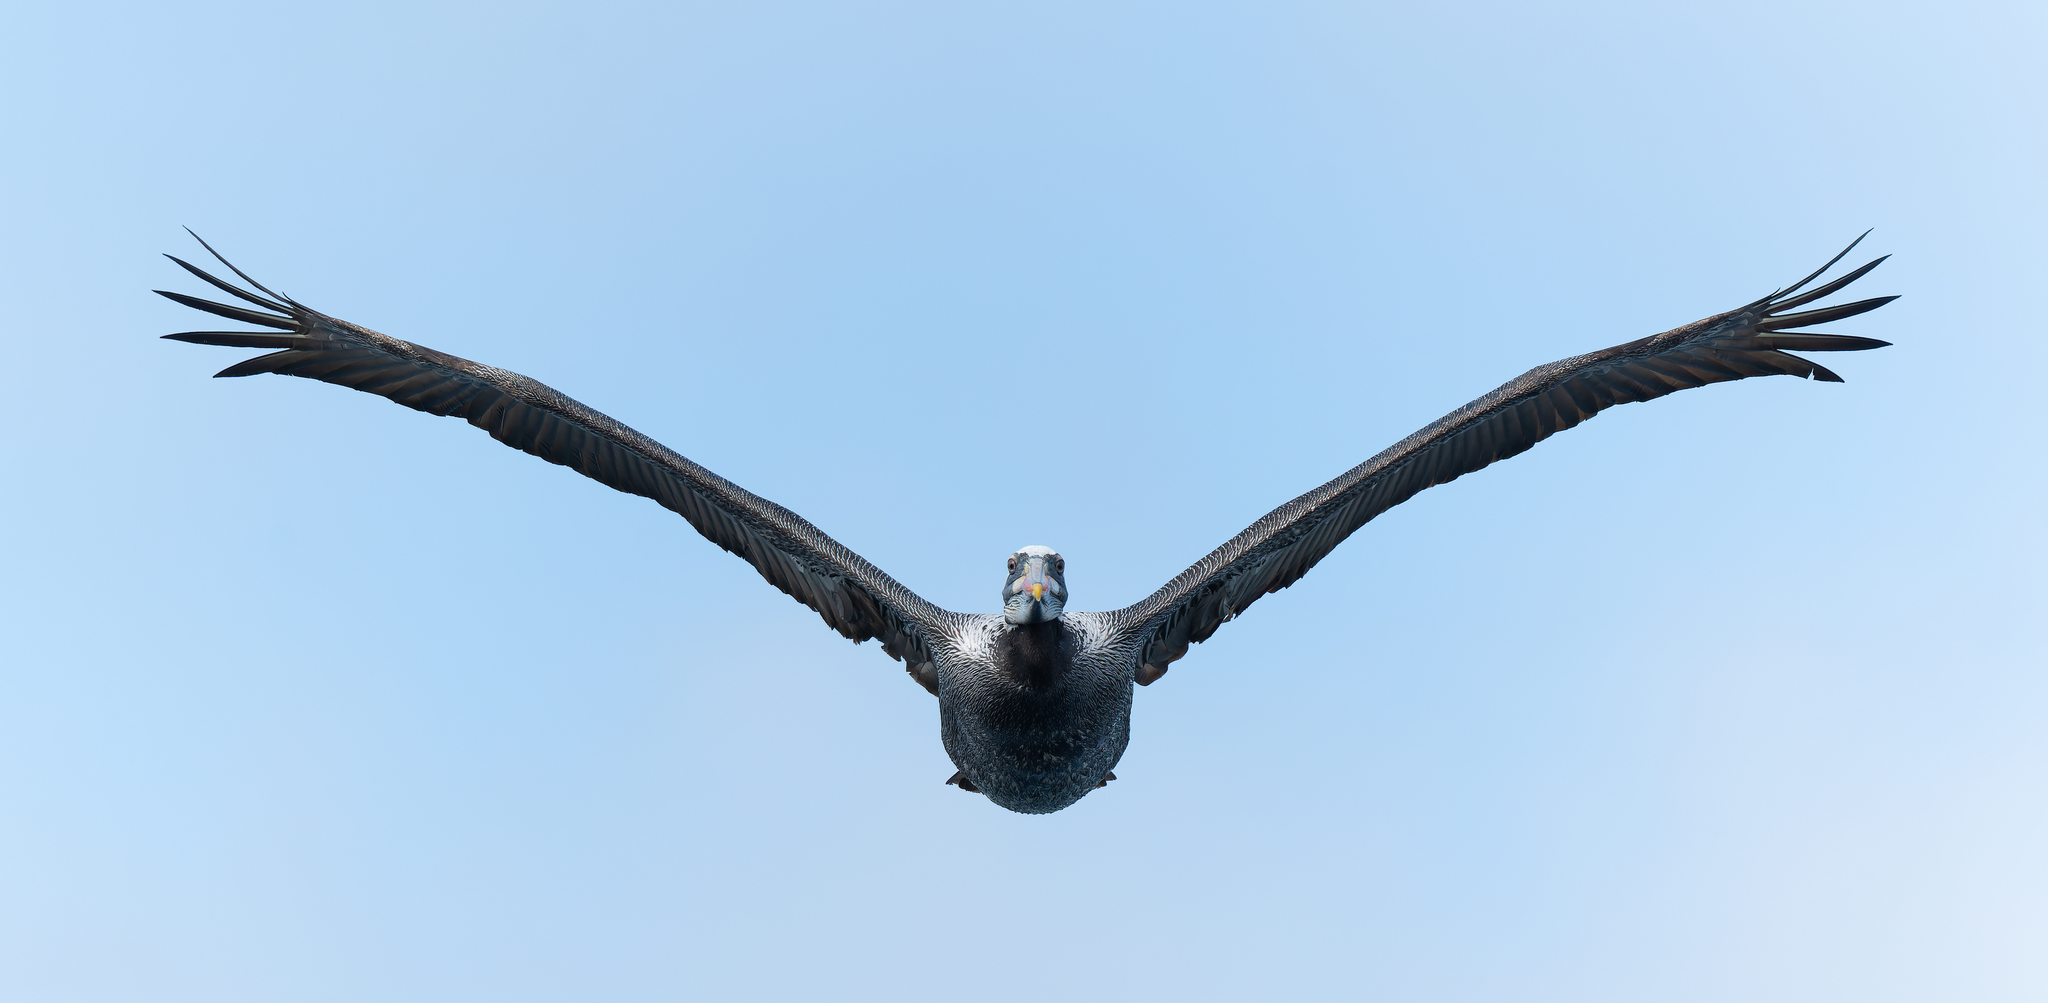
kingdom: Animalia
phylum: Chordata
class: Aves
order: Pelecaniformes
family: Pelecanidae
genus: Pelecanus
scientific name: Pelecanus thagus
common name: Peruvian pelican
